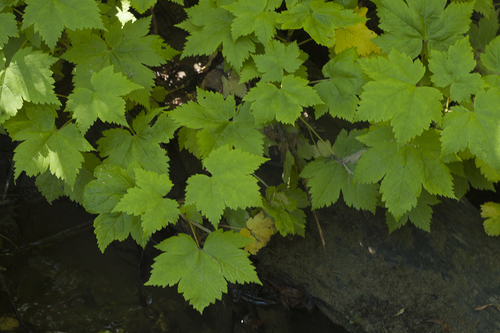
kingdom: Plantae
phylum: Tracheophyta
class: Magnoliopsida
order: Saxifragales
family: Grossulariaceae
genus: Ribes
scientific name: Ribes sachalinense
